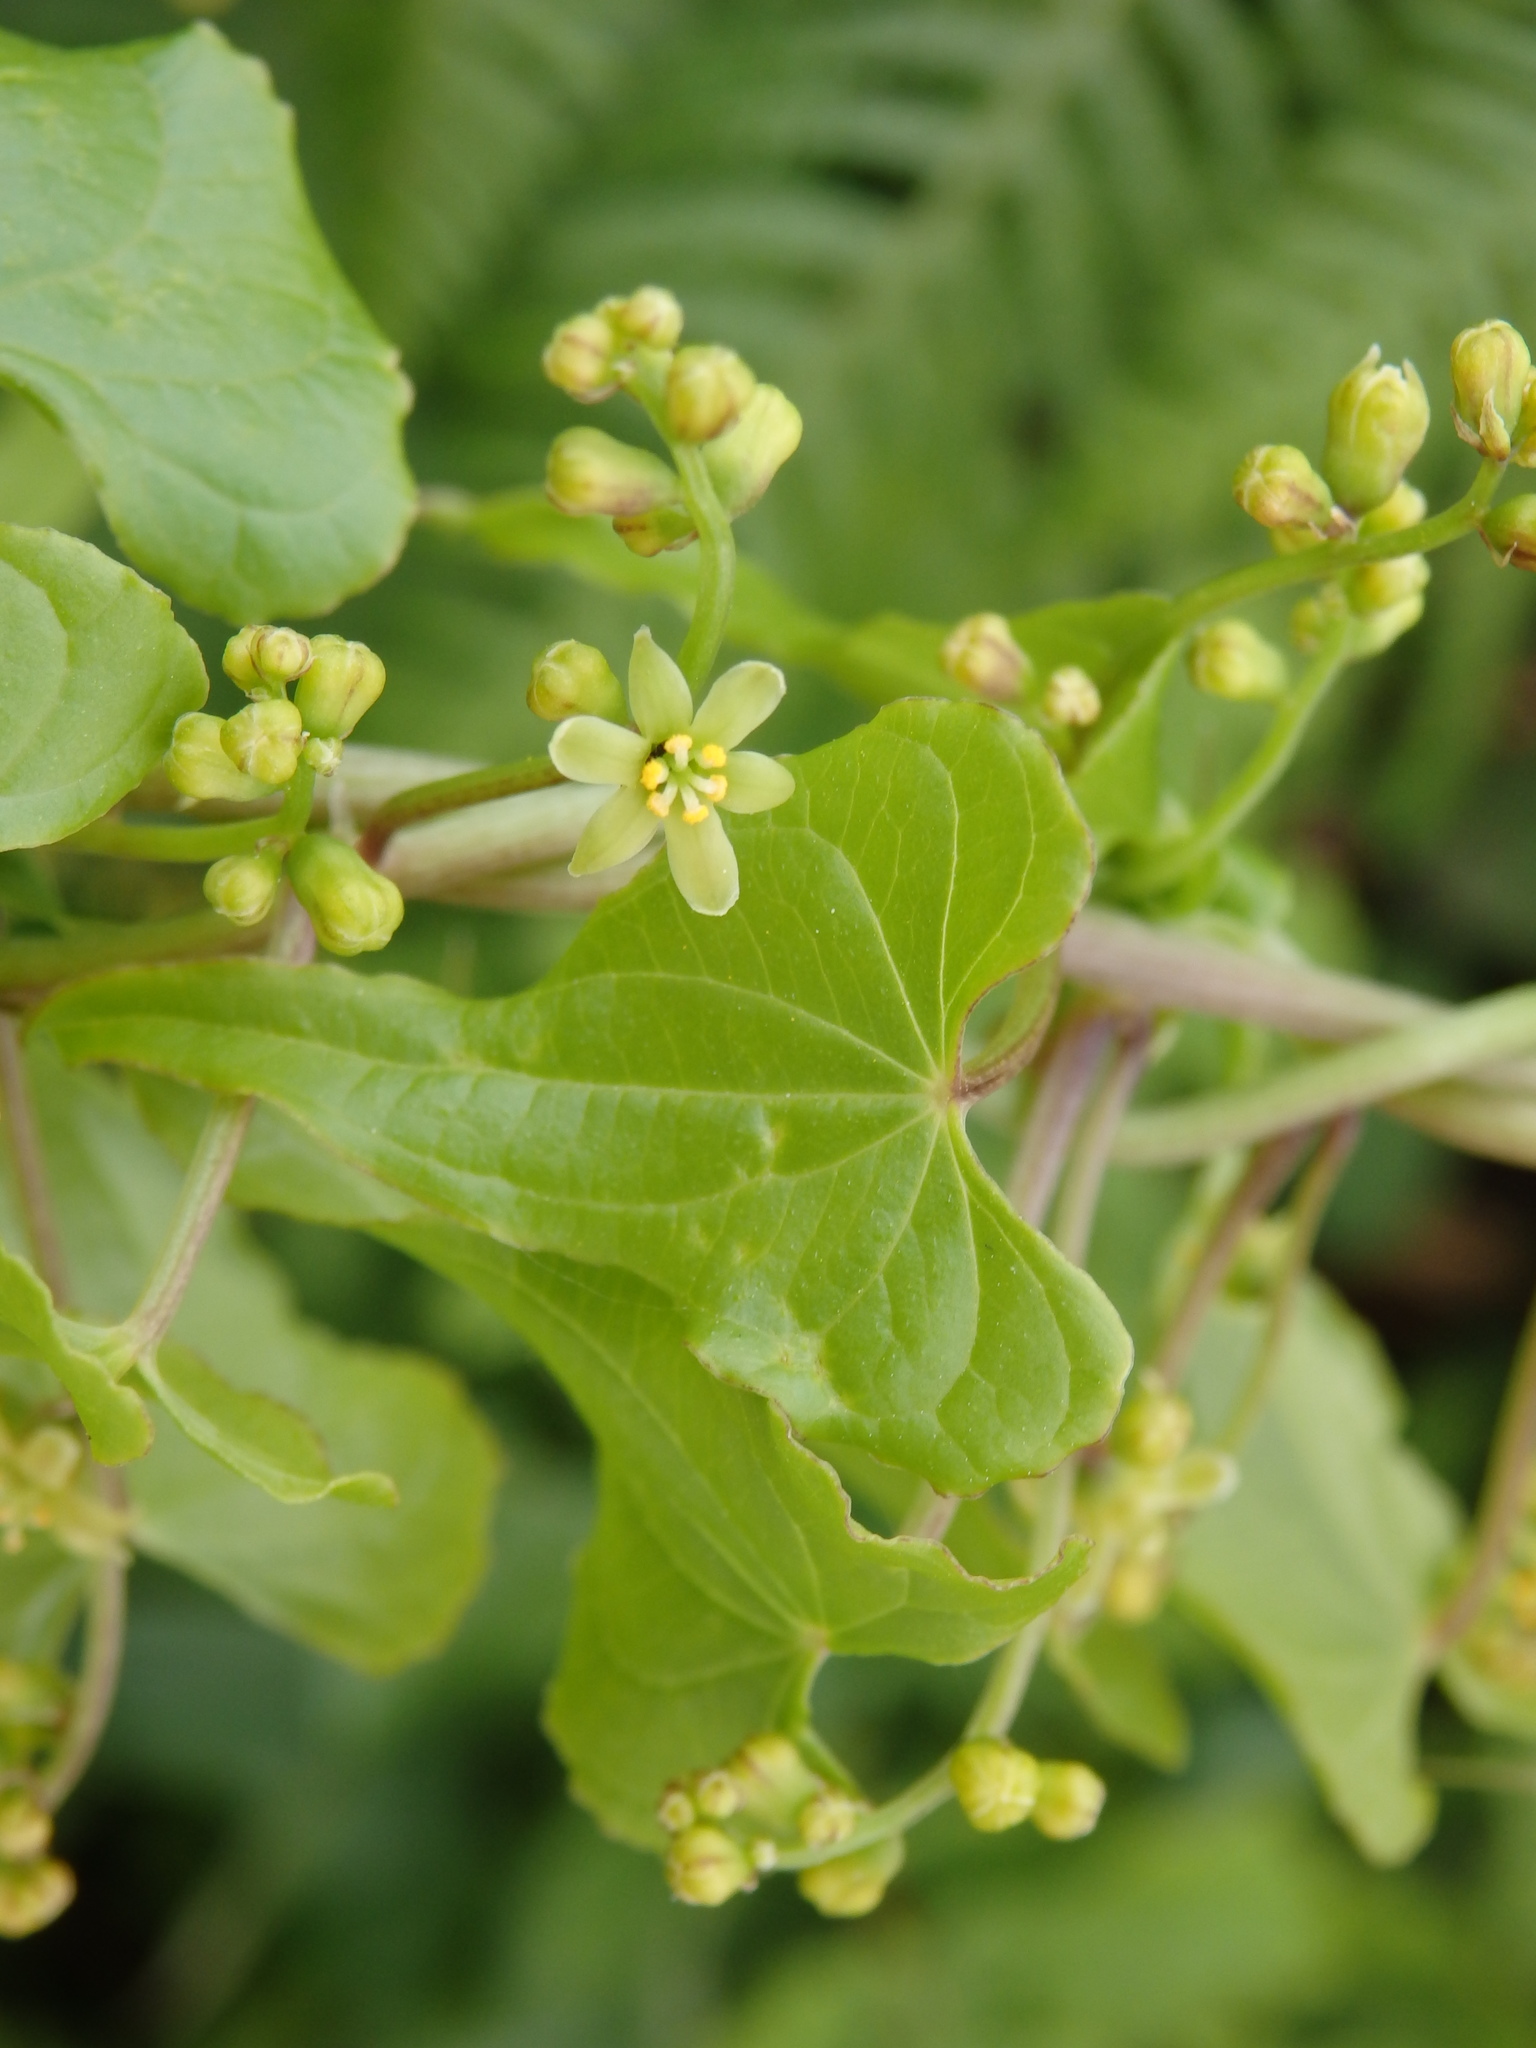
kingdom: Plantae
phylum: Tracheophyta
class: Liliopsida
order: Dioscoreales
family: Dioscoreaceae
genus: Dioscorea
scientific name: Dioscorea communis
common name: Black-bindweed
